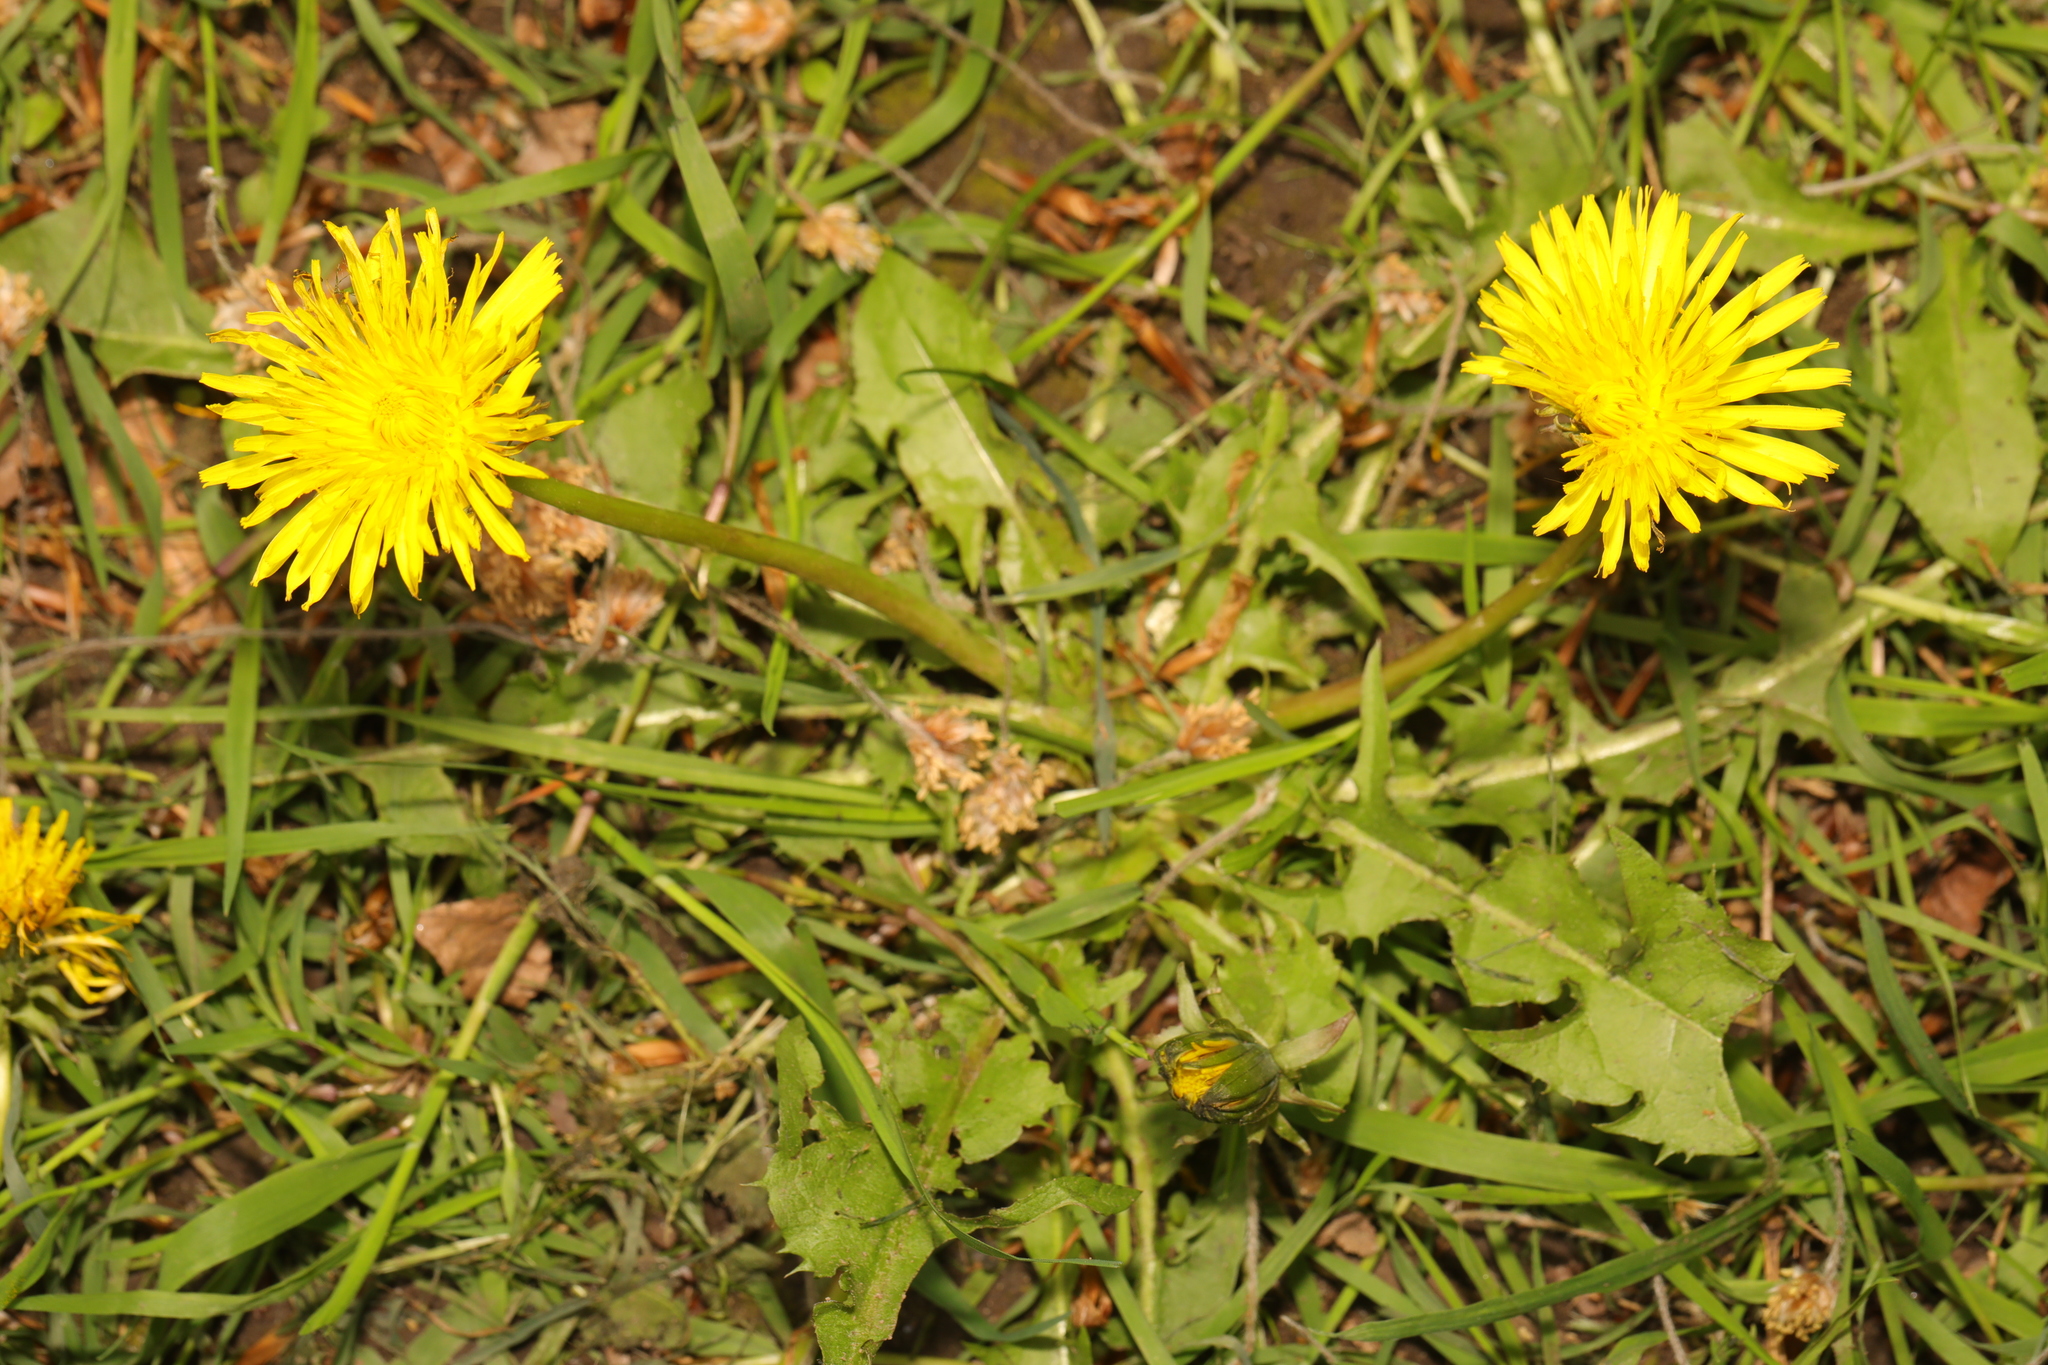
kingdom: Plantae
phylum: Tracheophyta
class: Magnoliopsida
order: Asterales
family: Asteraceae
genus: Taraxacum
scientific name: Taraxacum officinale
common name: Common dandelion
